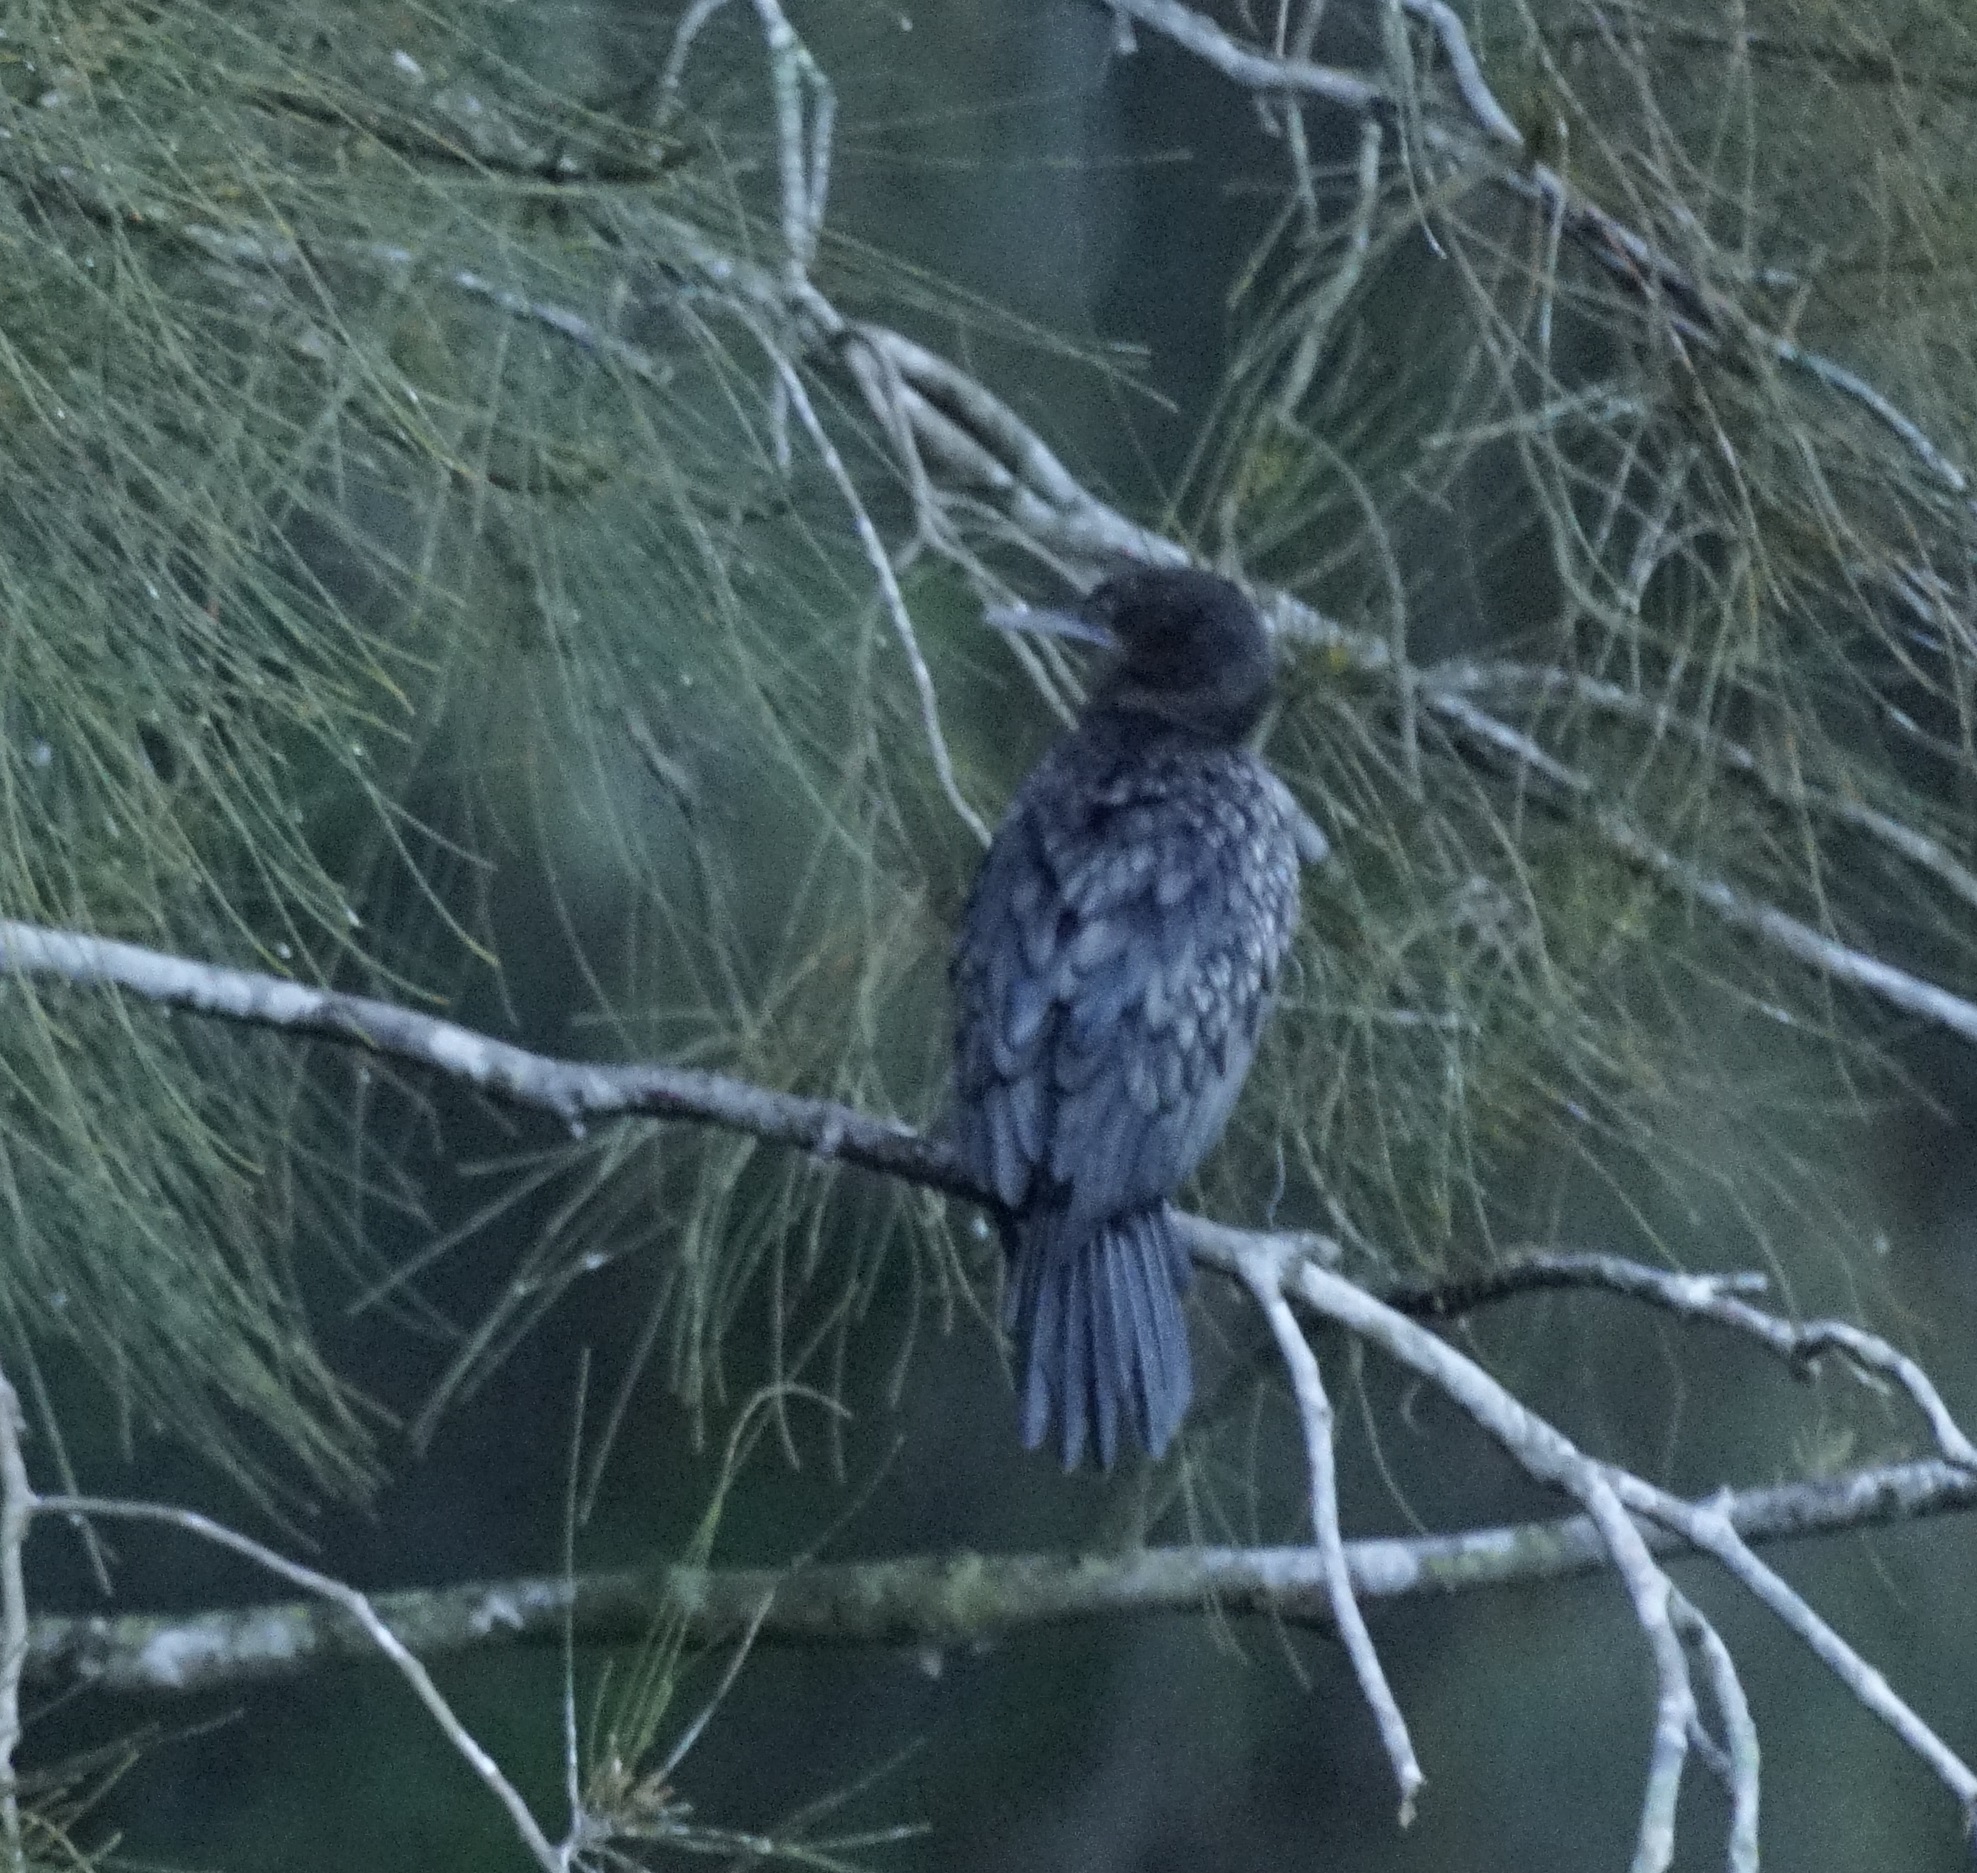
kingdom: Animalia
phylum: Chordata
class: Aves
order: Suliformes
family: Phalacrocoracidae
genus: Phalacrocorax
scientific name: Phalacrocorax sulcirostris
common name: Little black cormorant
